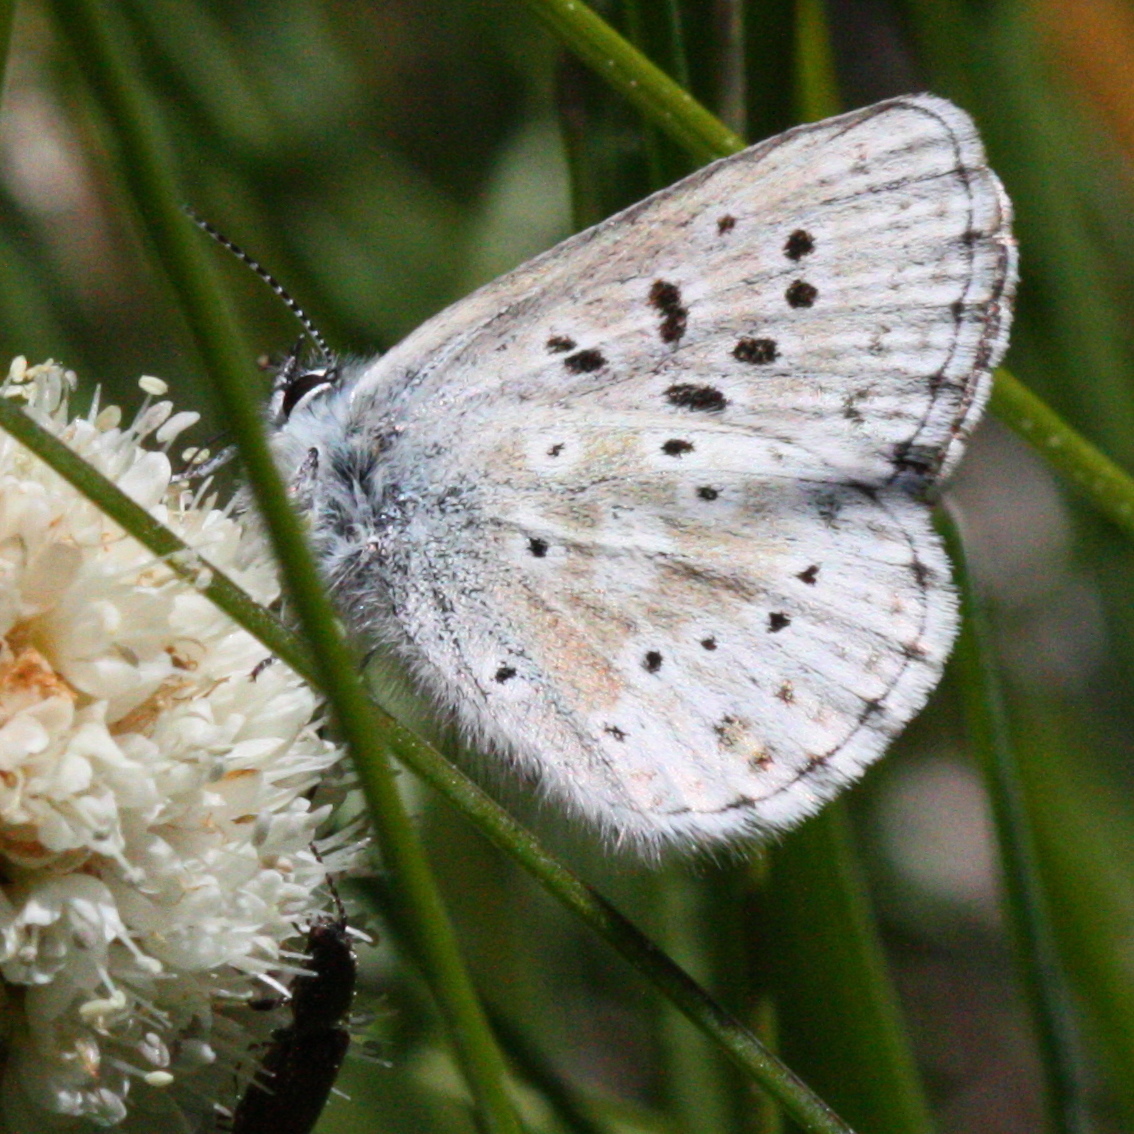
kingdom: Animalia
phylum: Arthropoda
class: Insecta
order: Lepidoptera
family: Lycaenidae
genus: Agriades
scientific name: Agriades podarce
